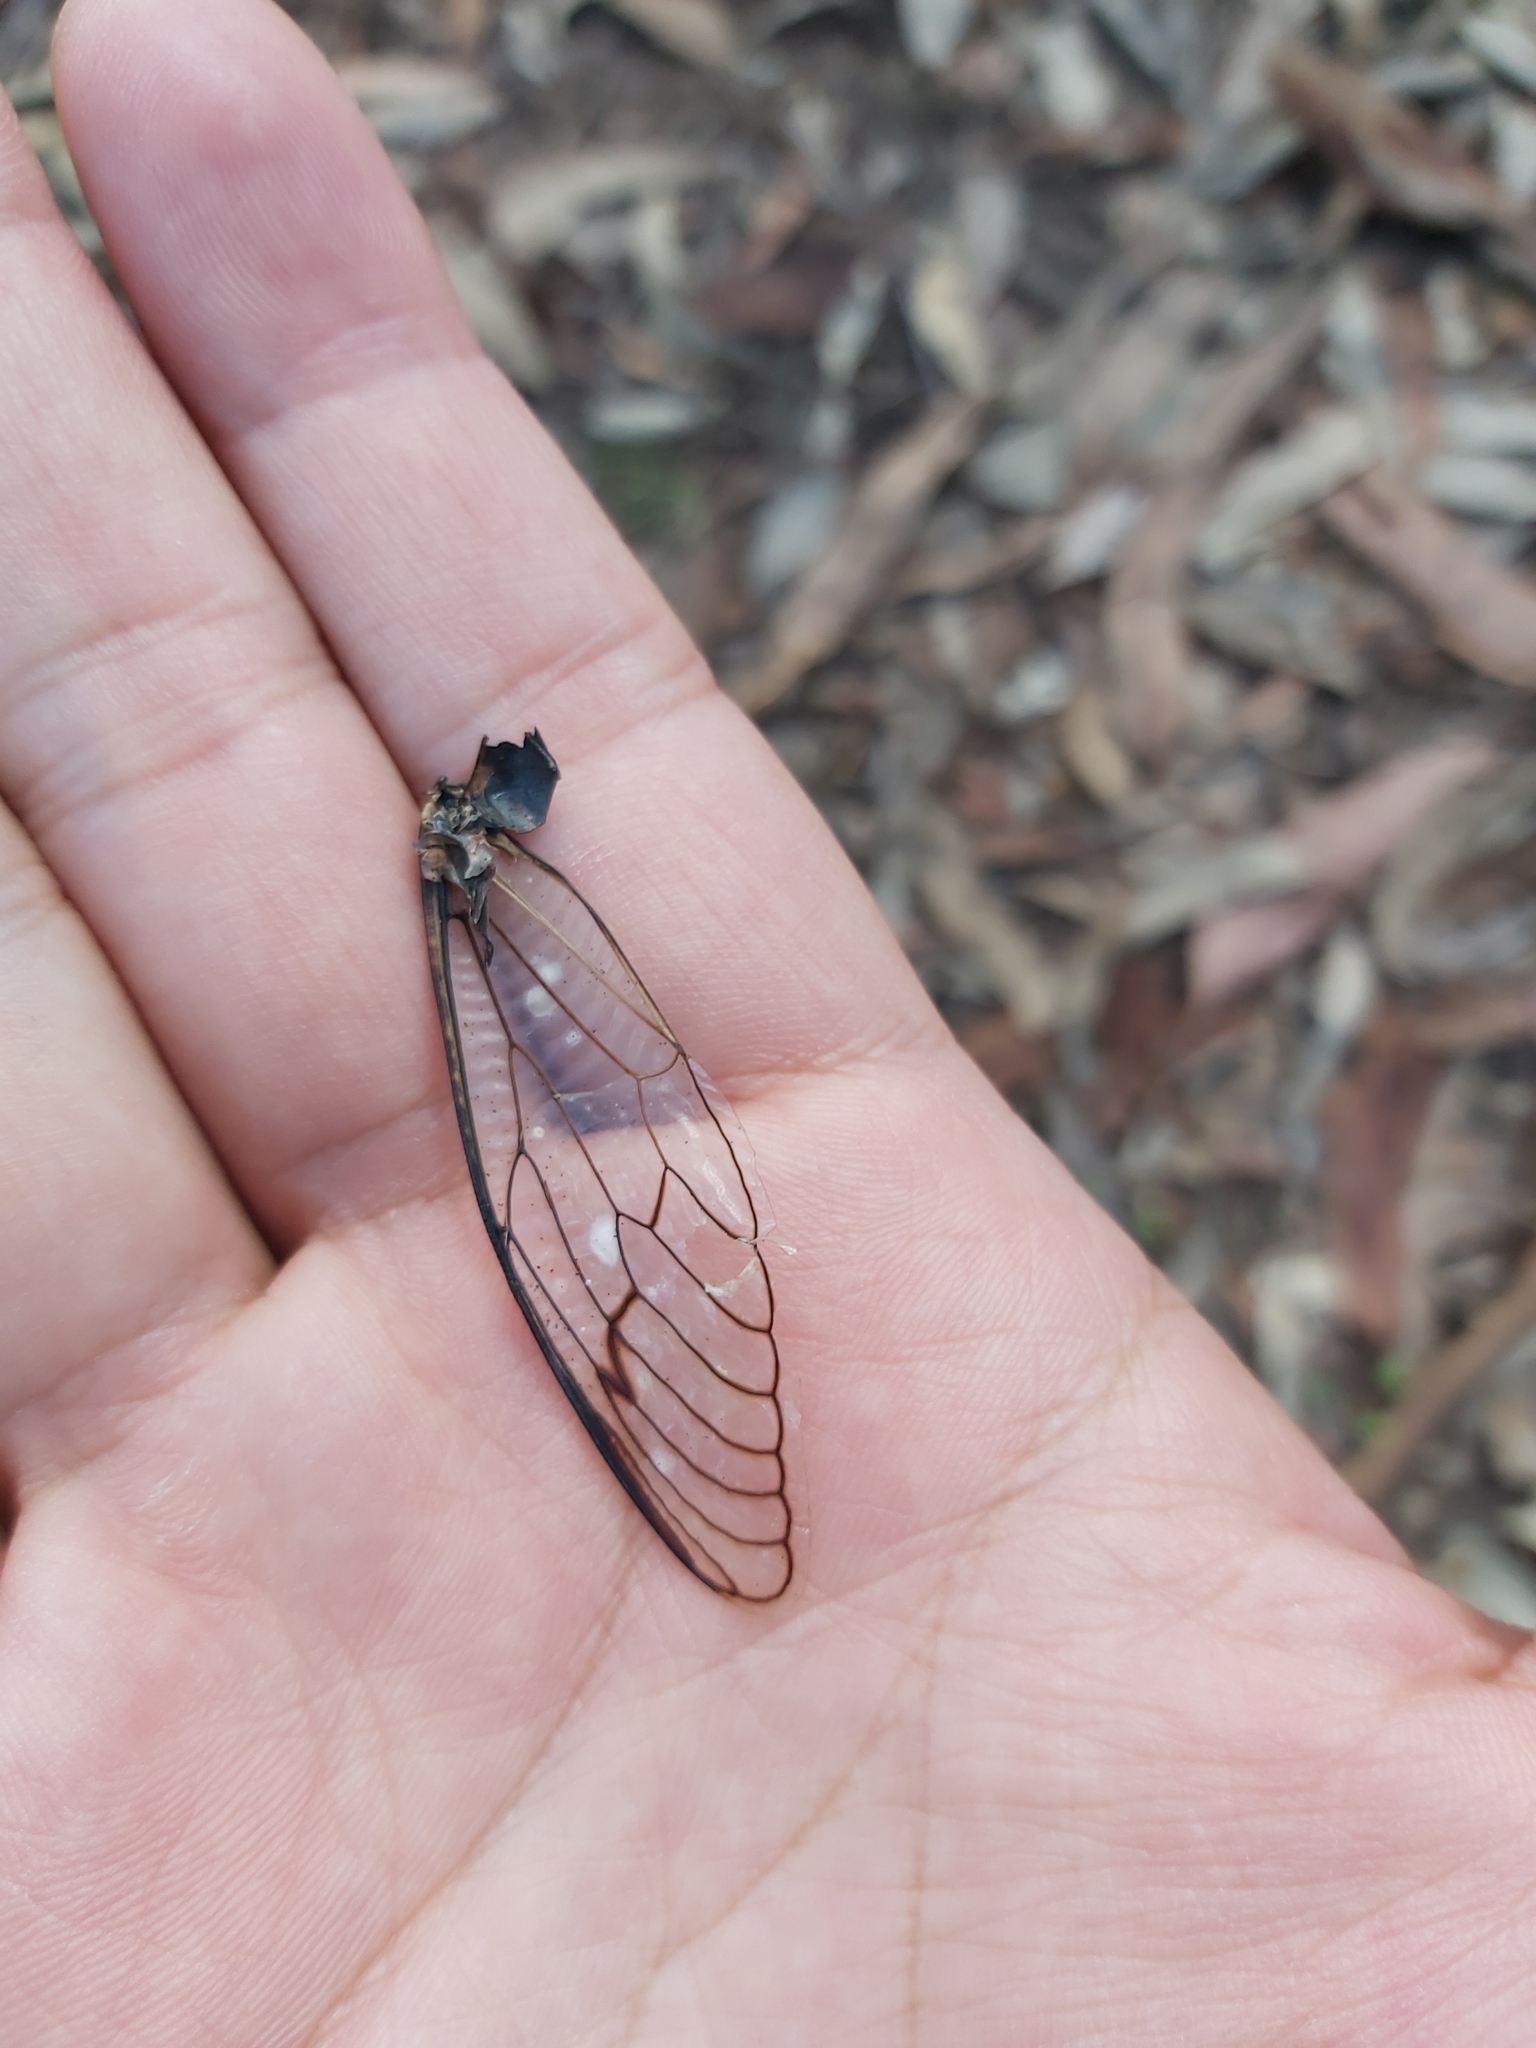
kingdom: Animalia
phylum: Arthropoda
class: Insecta
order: Hemiptera
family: Cicadidae
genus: Psaltoda
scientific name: Psaltoda plaga
